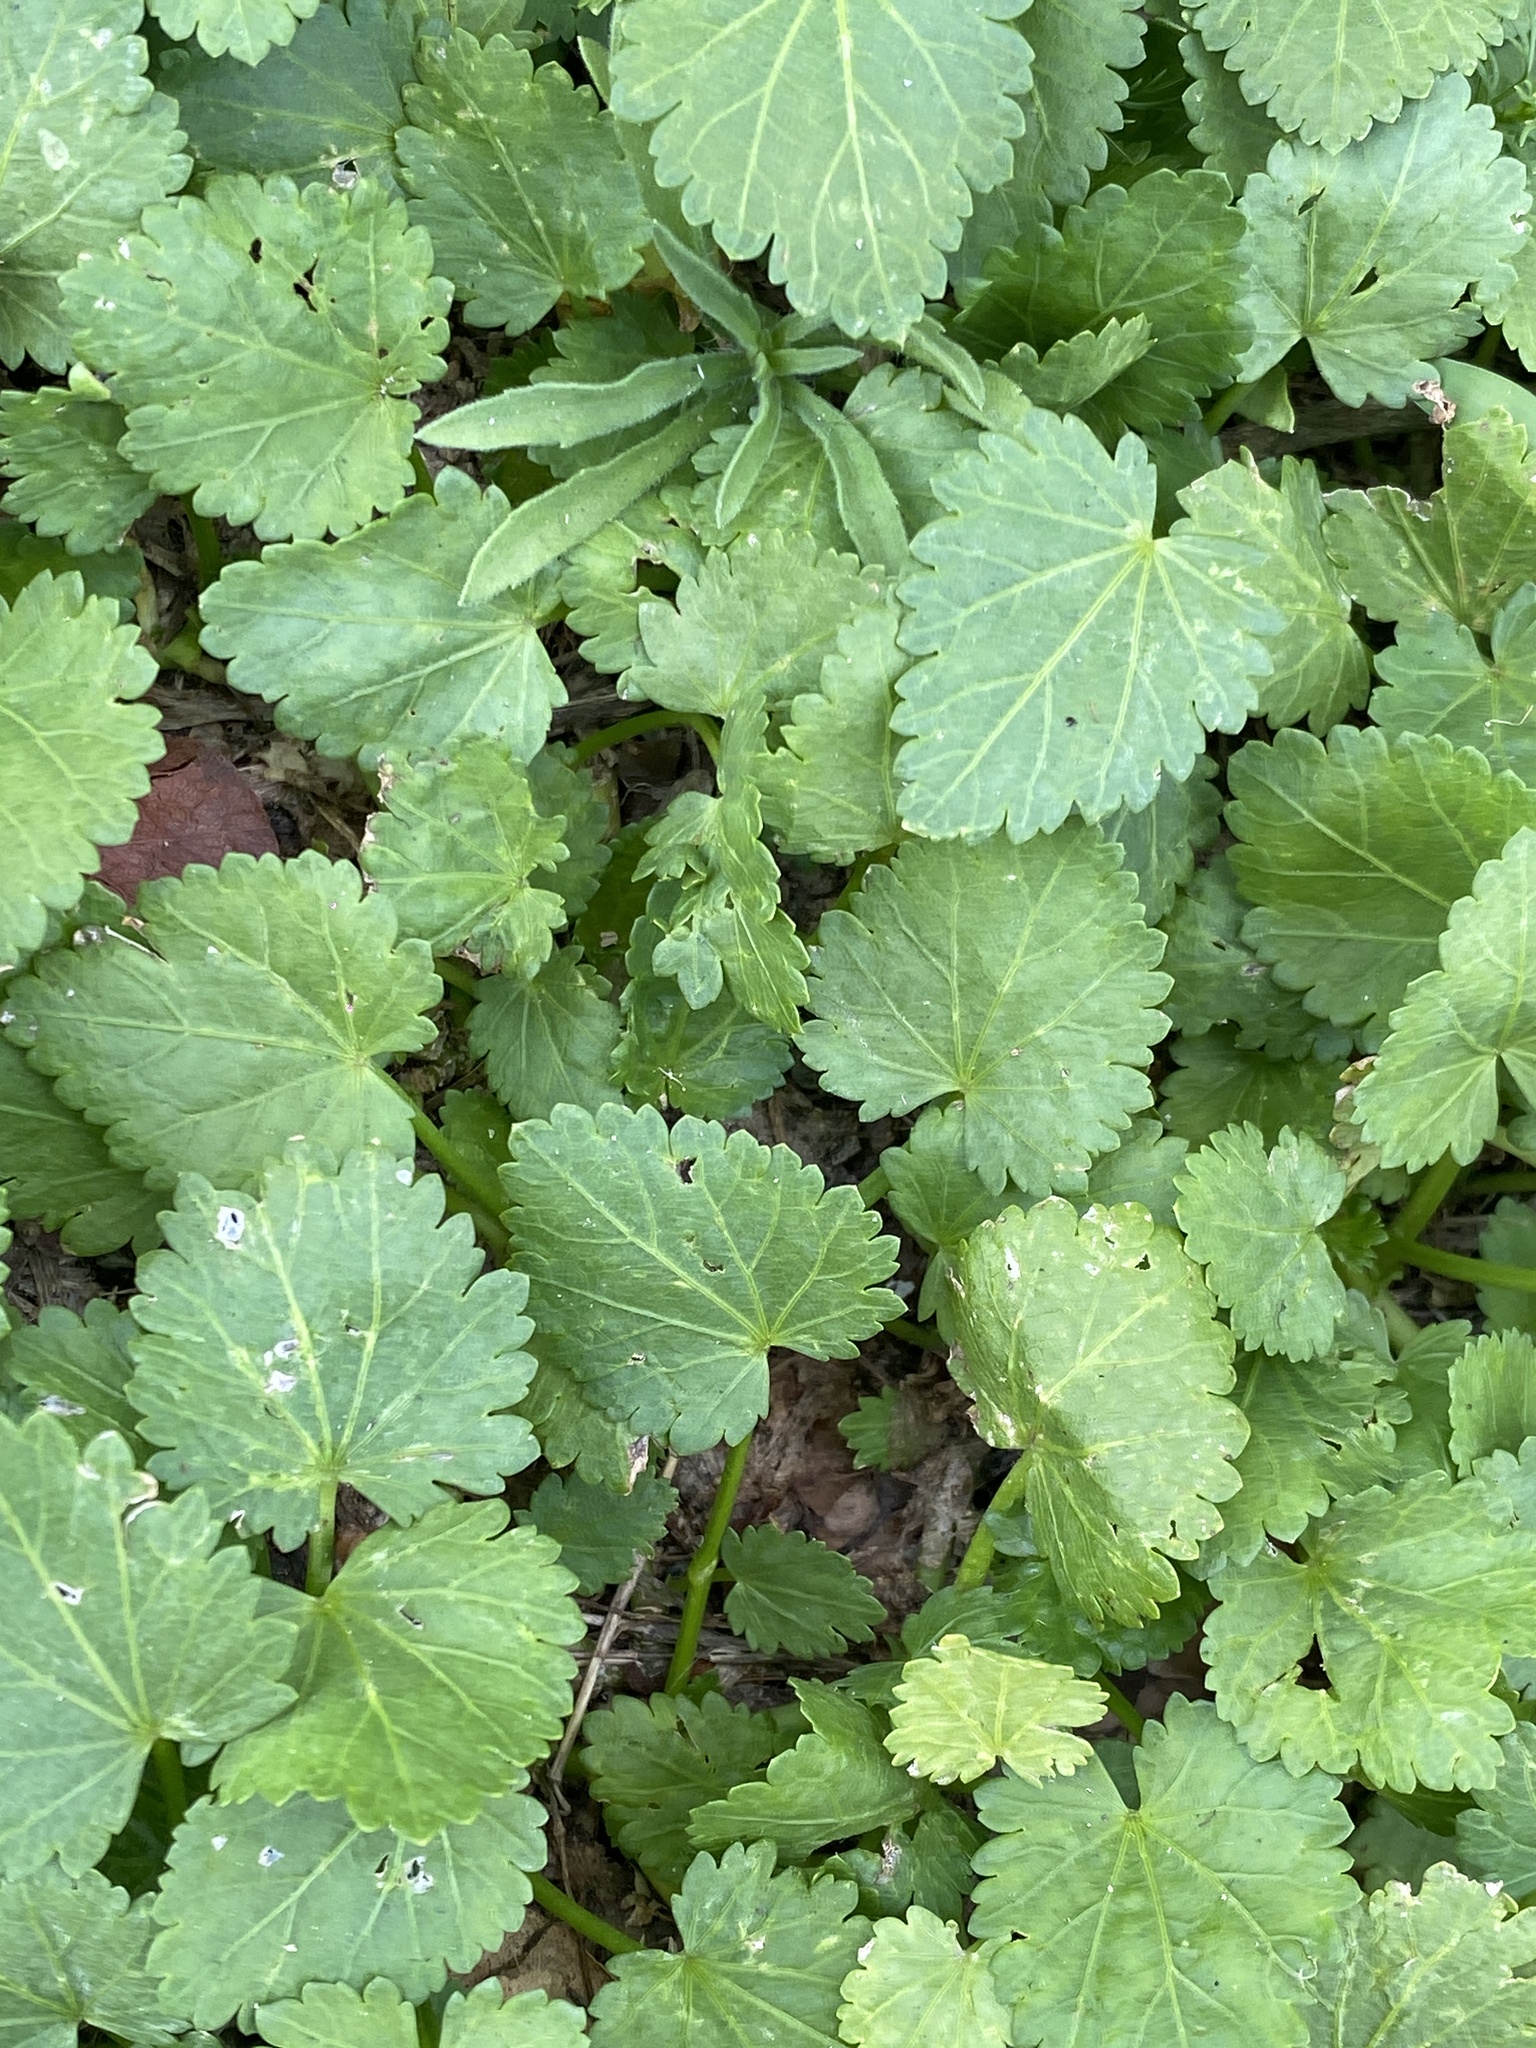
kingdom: Plantae
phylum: Tracheophyta
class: Magnoliopsida
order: Malvales
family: Malvaceae
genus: Modiola
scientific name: Modiola caroliniana
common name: Carolina bristlemallow
